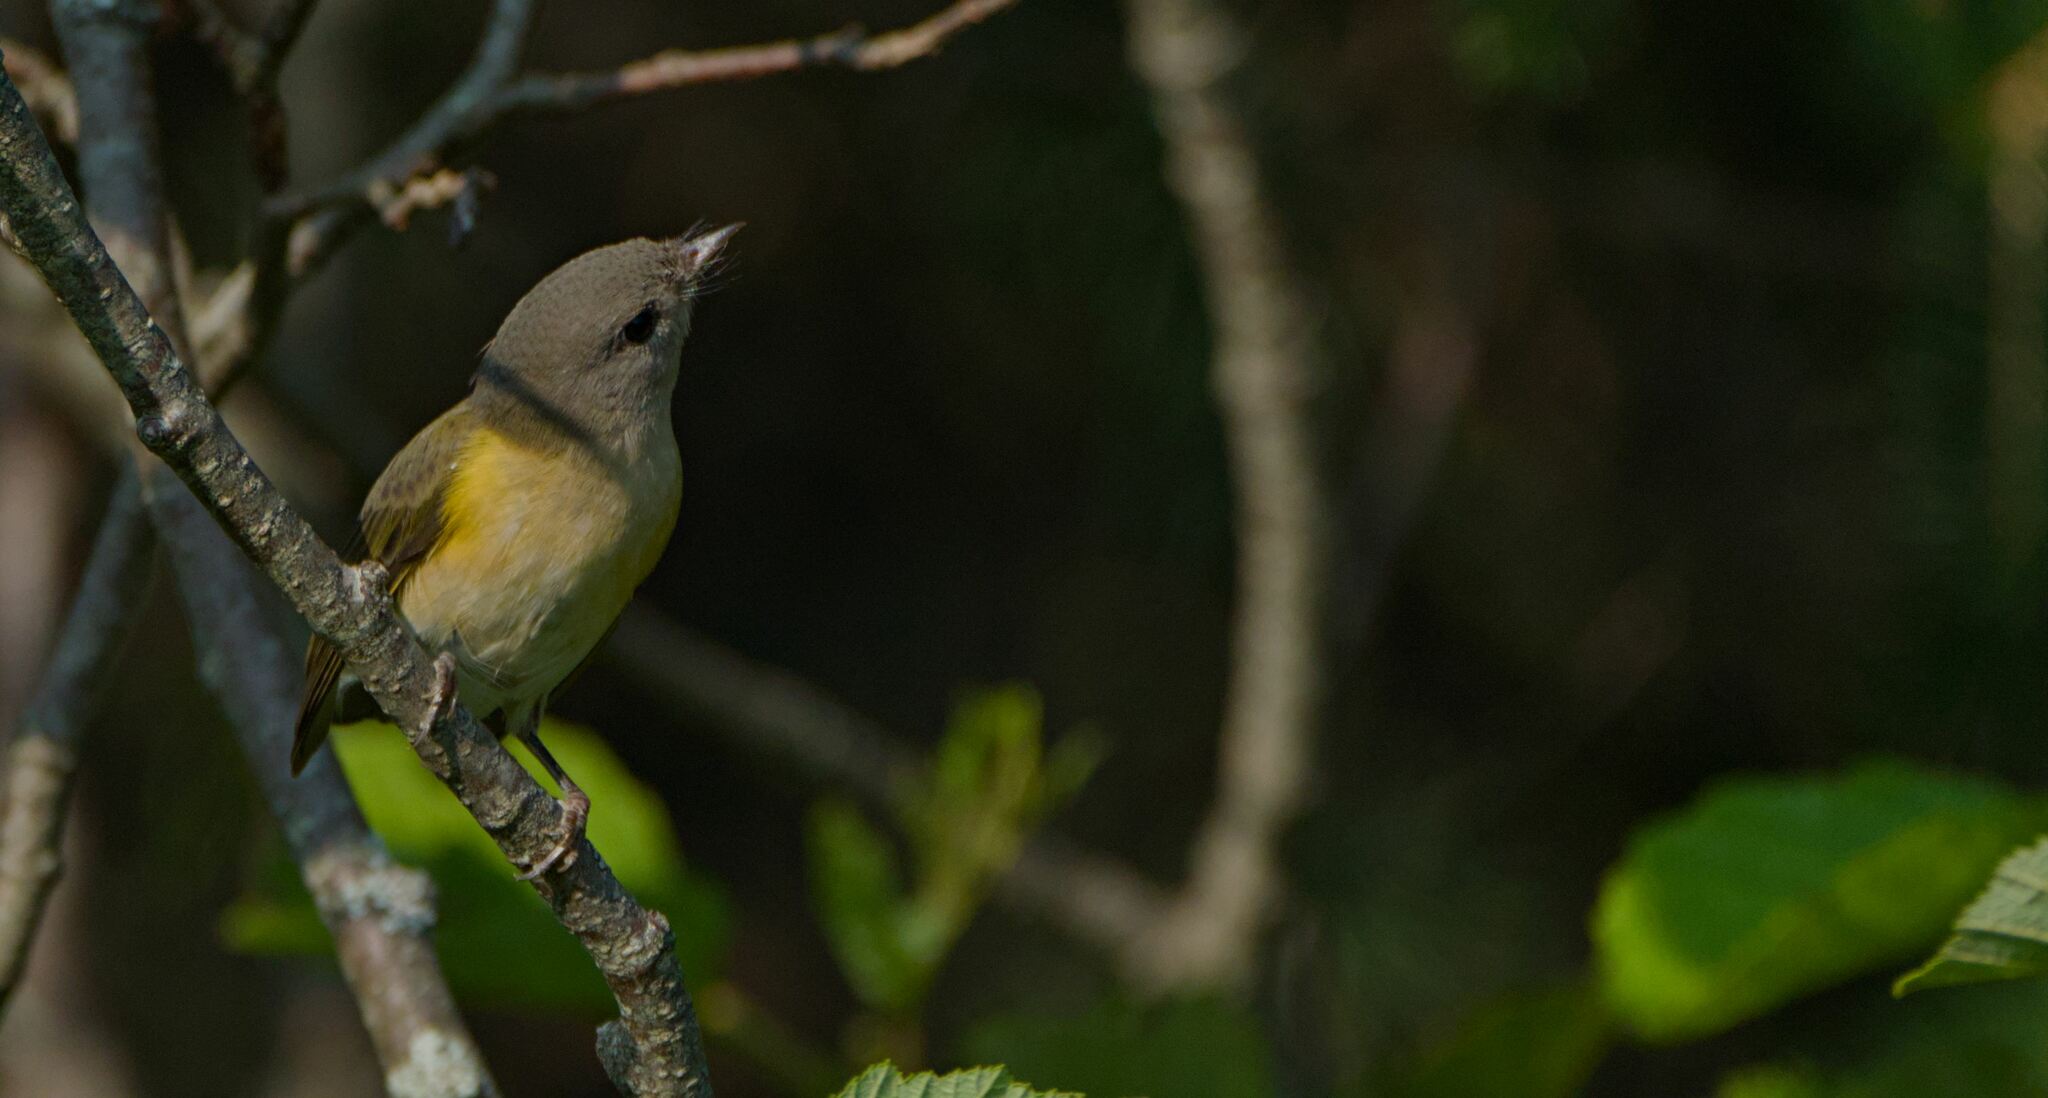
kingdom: Animalia
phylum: Chordata
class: Aves
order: Passeriformes
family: Parulidae
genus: Setophaga
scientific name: Setophaga ruticilla
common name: American redstart
